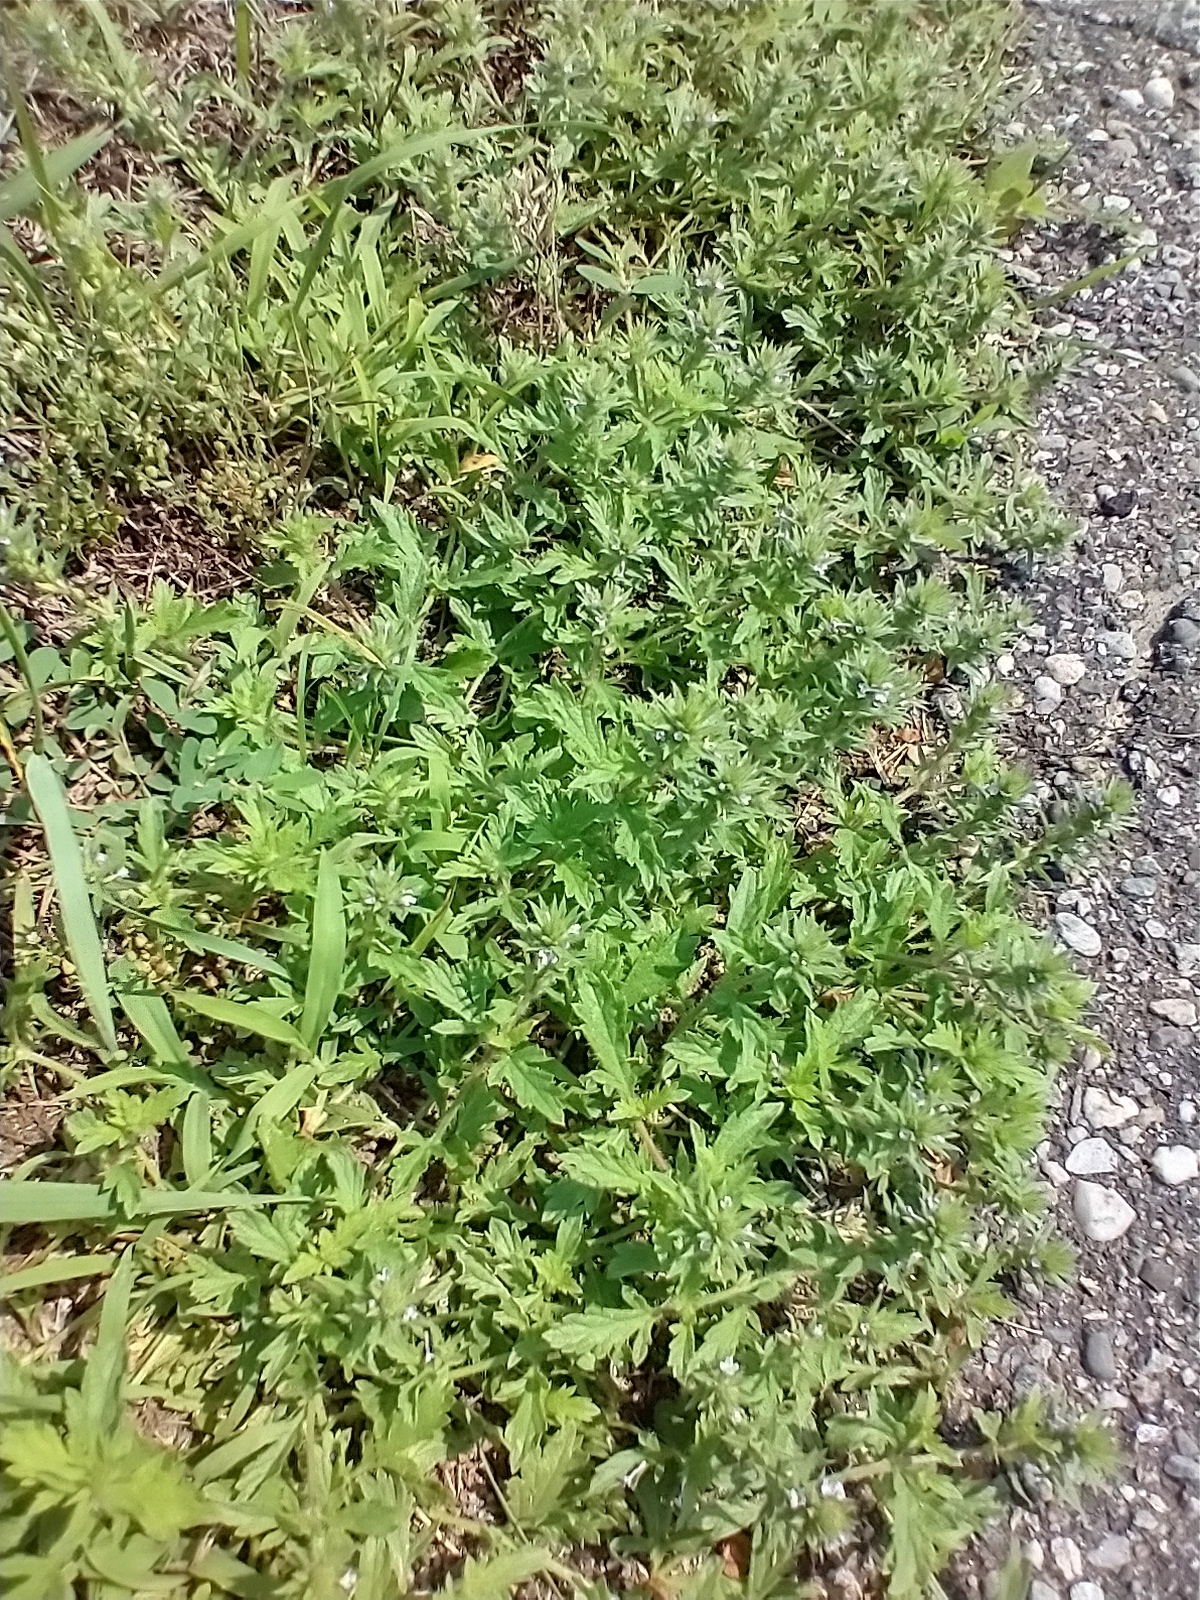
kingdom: Plantae
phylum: Tracheophyta
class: Magnoliopsida
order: Lamiales
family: Verbenaceae
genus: Verbena
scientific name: Verbena bracteata
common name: Bracted vervain
